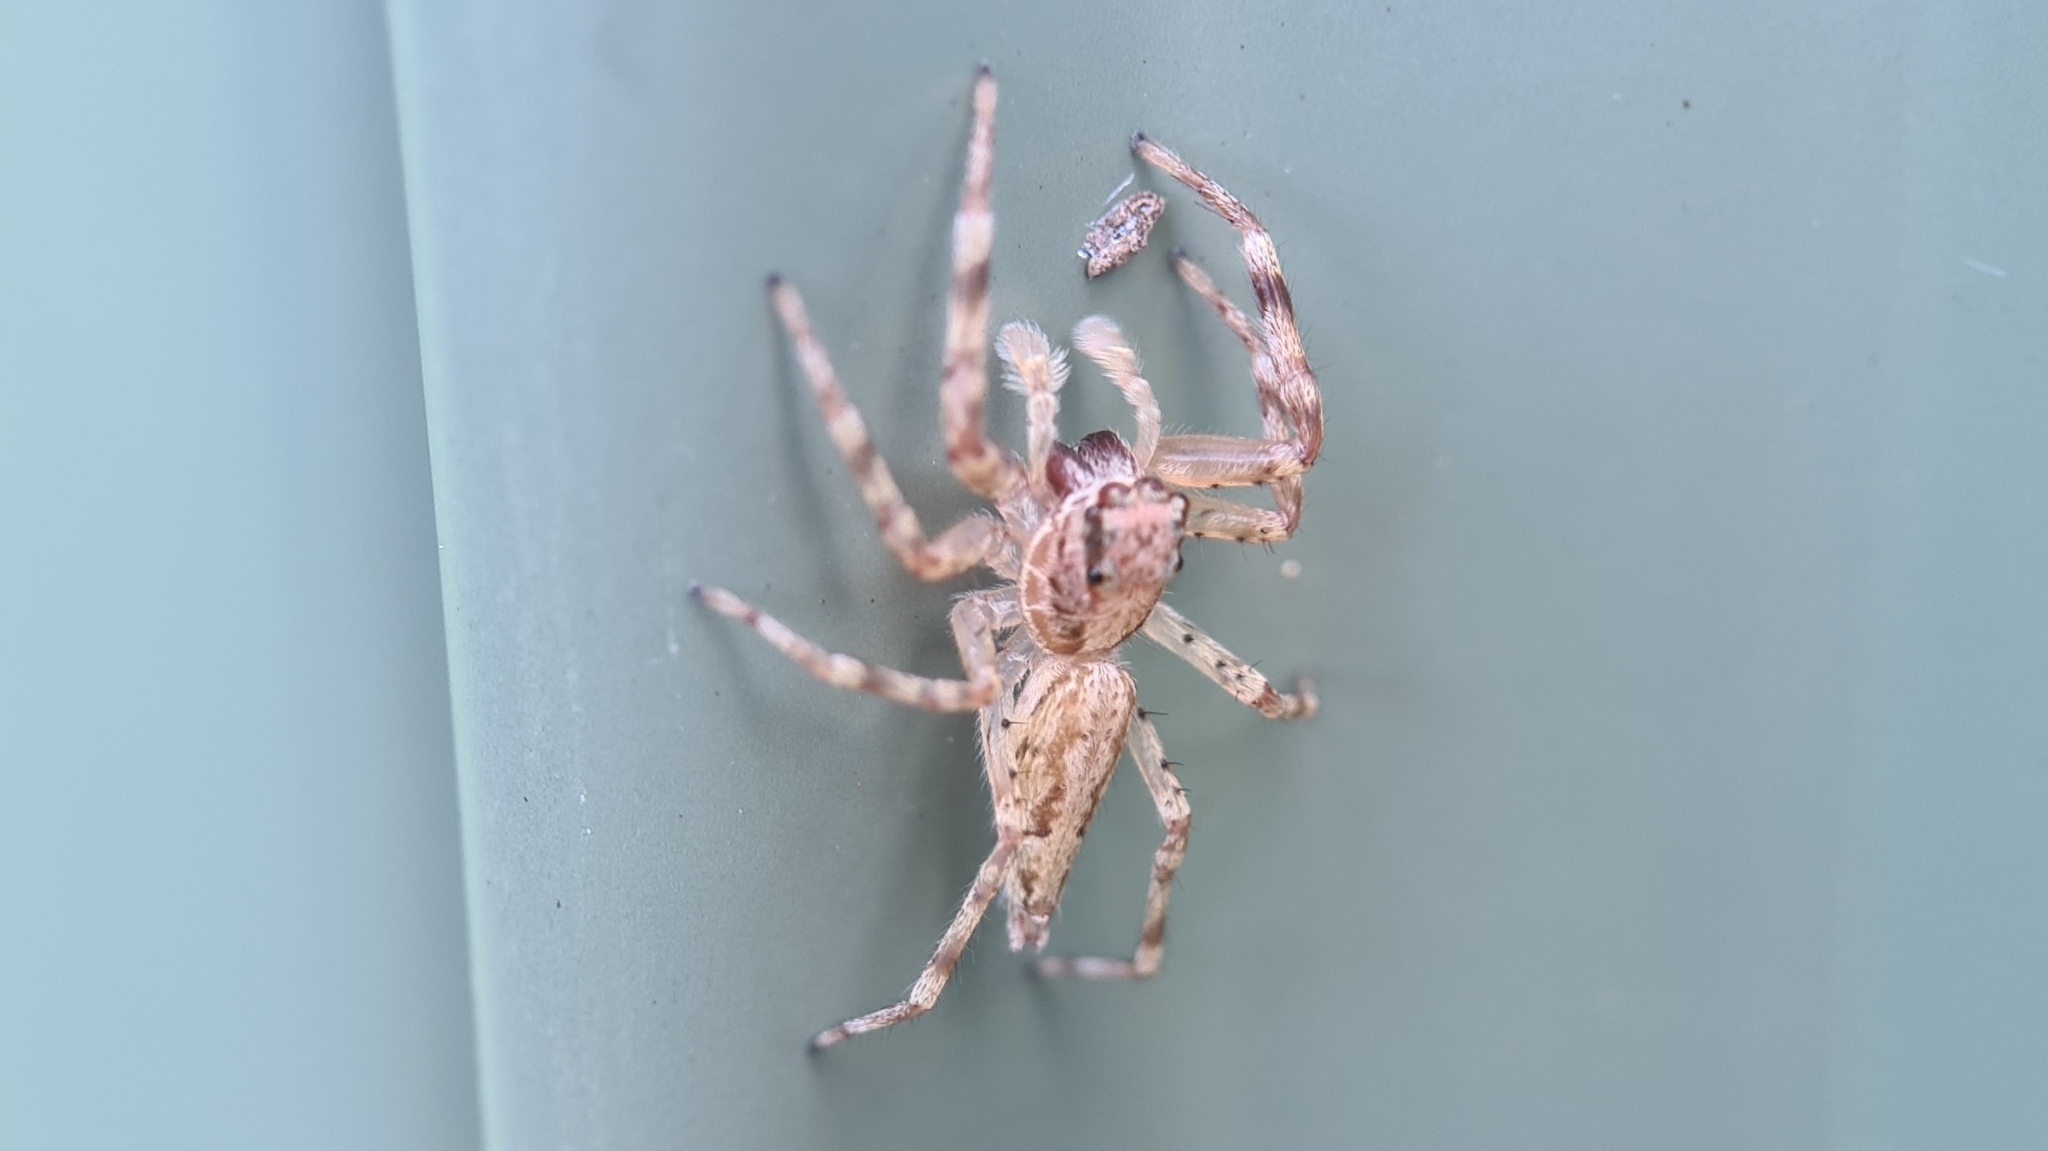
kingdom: Animalia
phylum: Arthropoda
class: Arachnida
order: Araneae
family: Salticidae
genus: Helpis
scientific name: Helpis minitabunda
